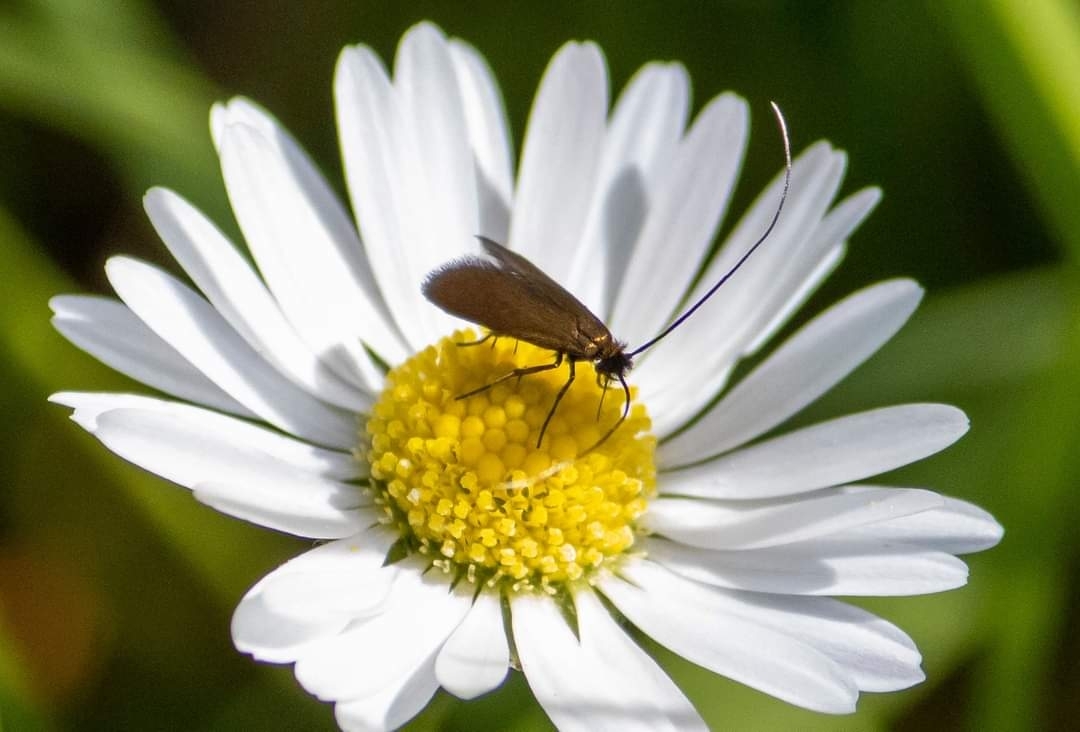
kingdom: Animalia
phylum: Arthropoda
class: Insecta
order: Lepidoptera
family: Adelidae
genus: Cauchas
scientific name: Cauchas rufimitrella
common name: Meadow long-horn
